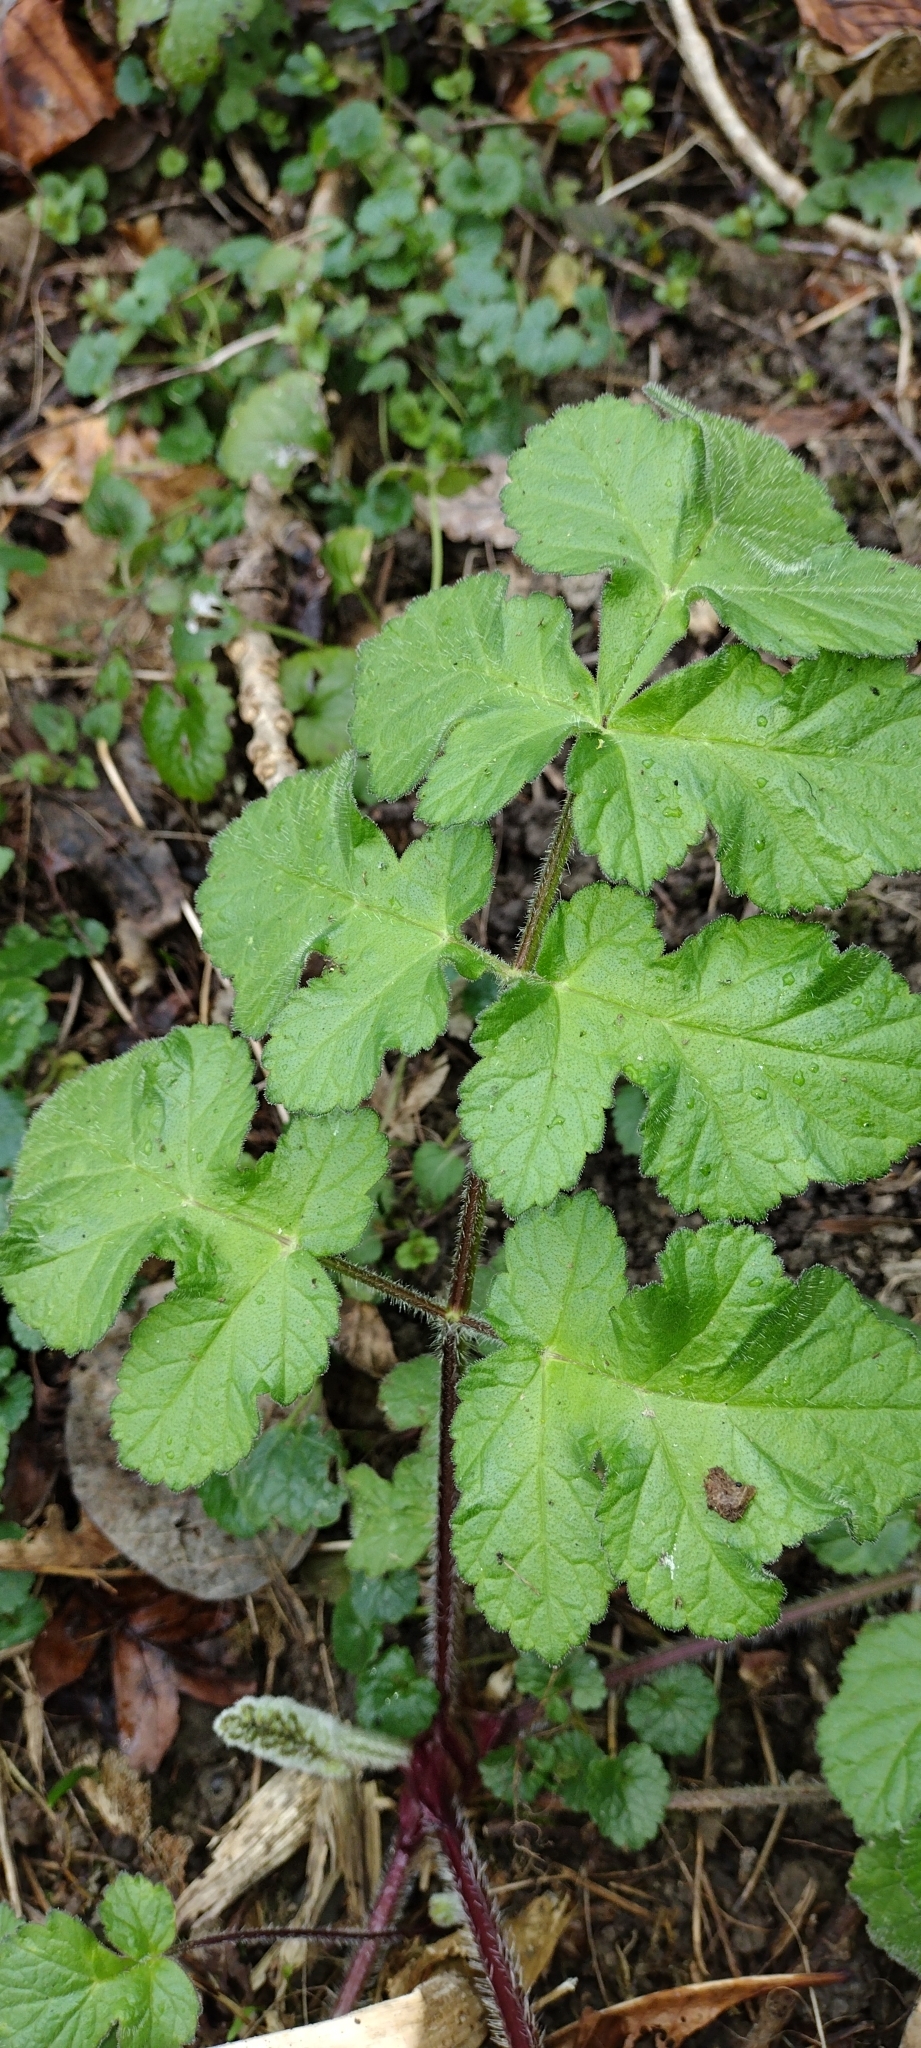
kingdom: Plantae
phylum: Tracheophyta
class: Magnoliopsida
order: Apiales
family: Apiaceae
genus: Heracleum
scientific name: Heracleum sphondylium
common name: Hogweed
